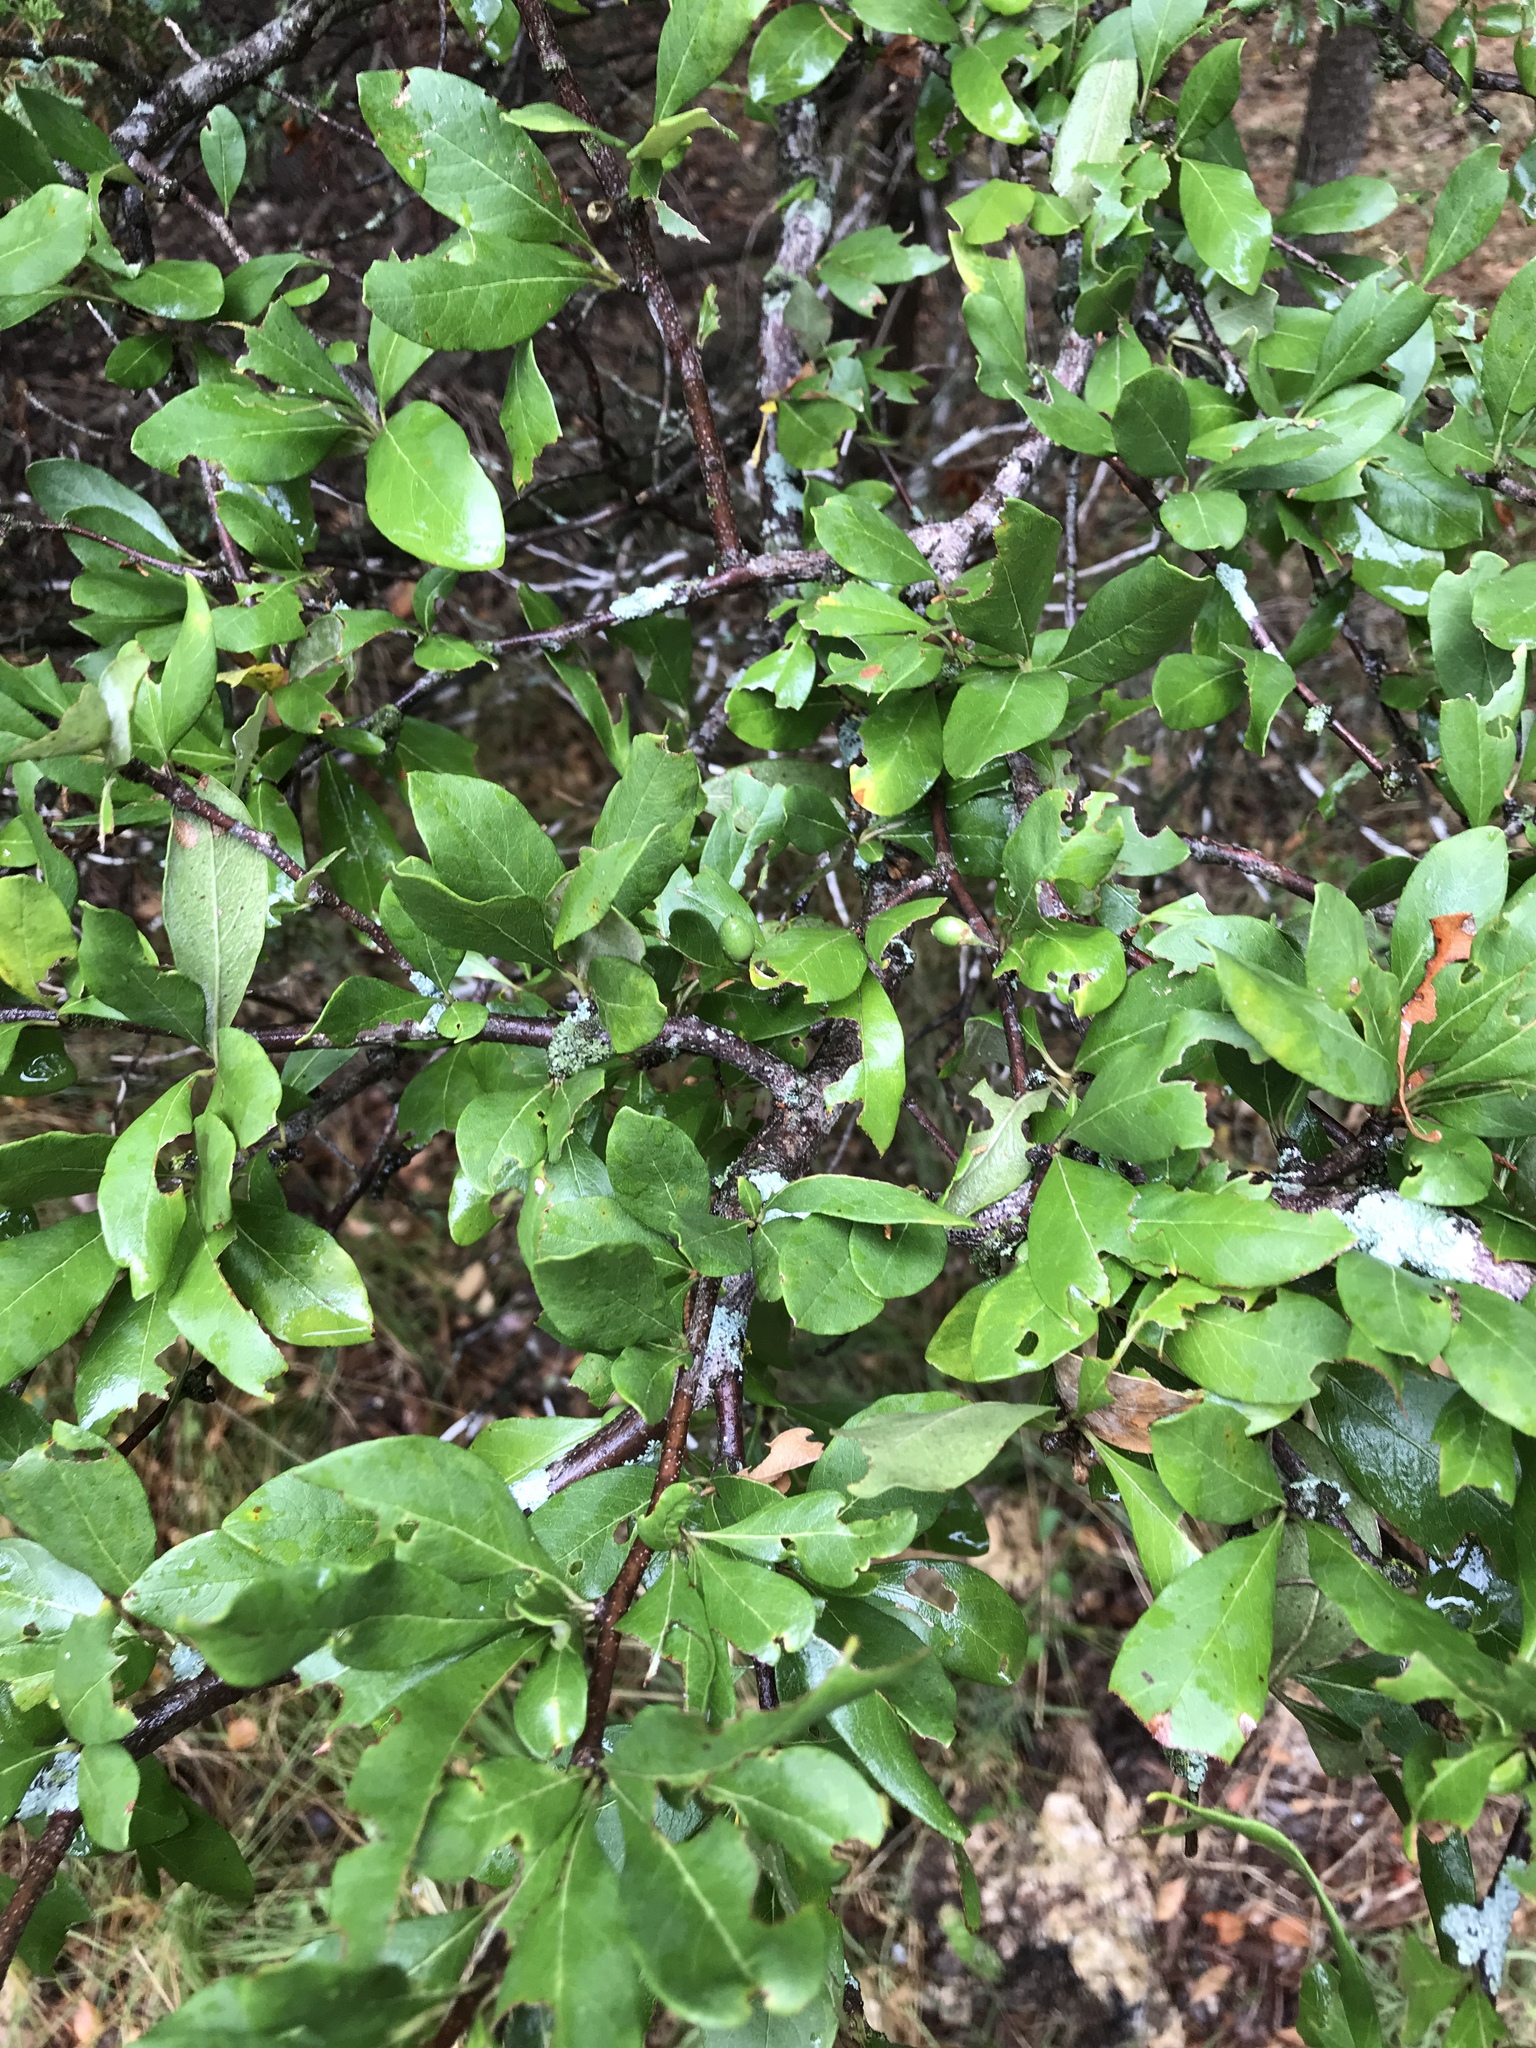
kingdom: Plantae
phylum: Tracheophyta
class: Magnoliopsida
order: Ericales
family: Sapotaceae
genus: Sideroxylon
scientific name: Sideroxylon lanuginosum
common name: Chittamwood
